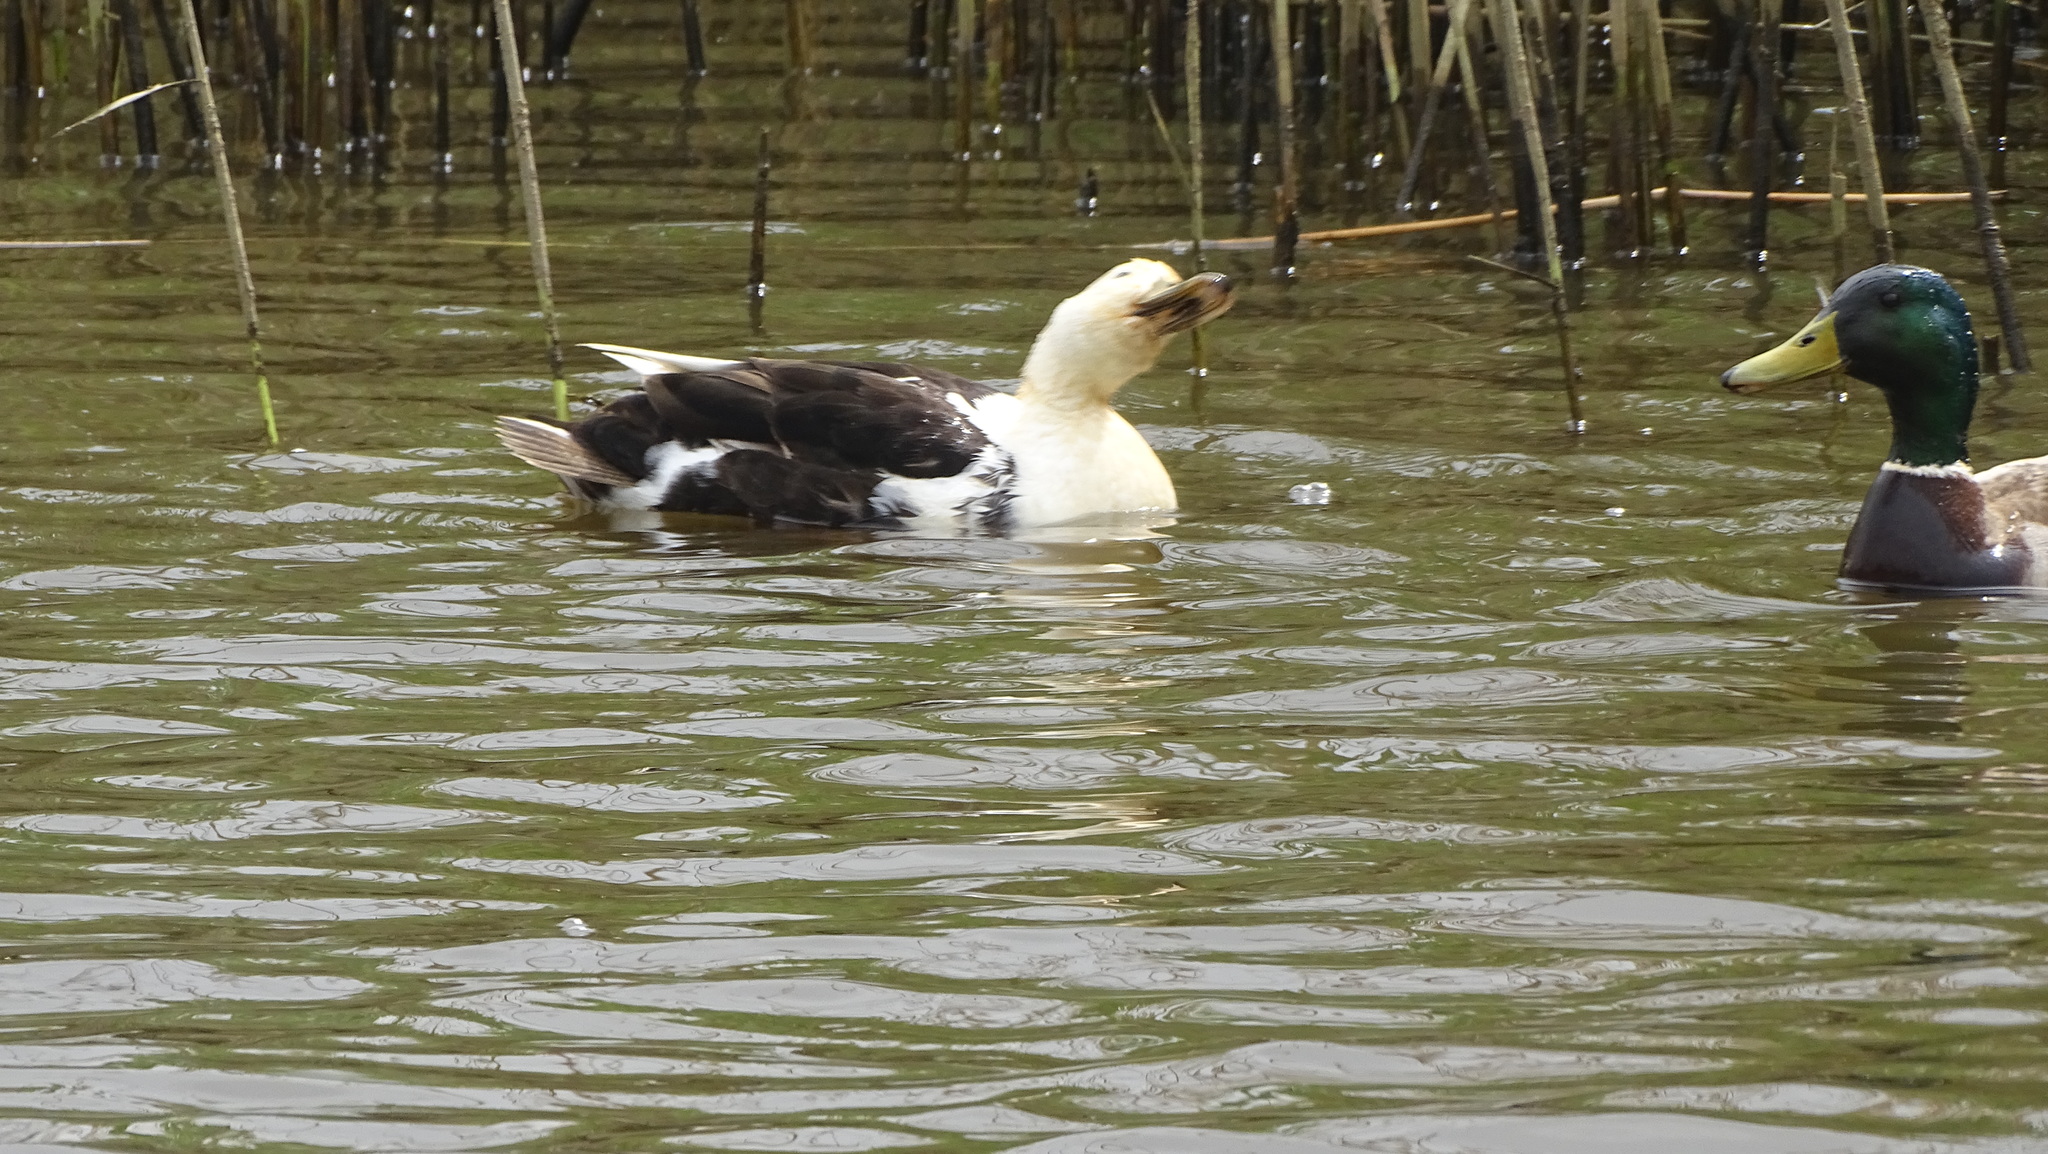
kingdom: Animalia
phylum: Chordata
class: Aves
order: Anseriformes
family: Anatidae
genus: Anas
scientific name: Anas platyrhynchos
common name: Mallard
